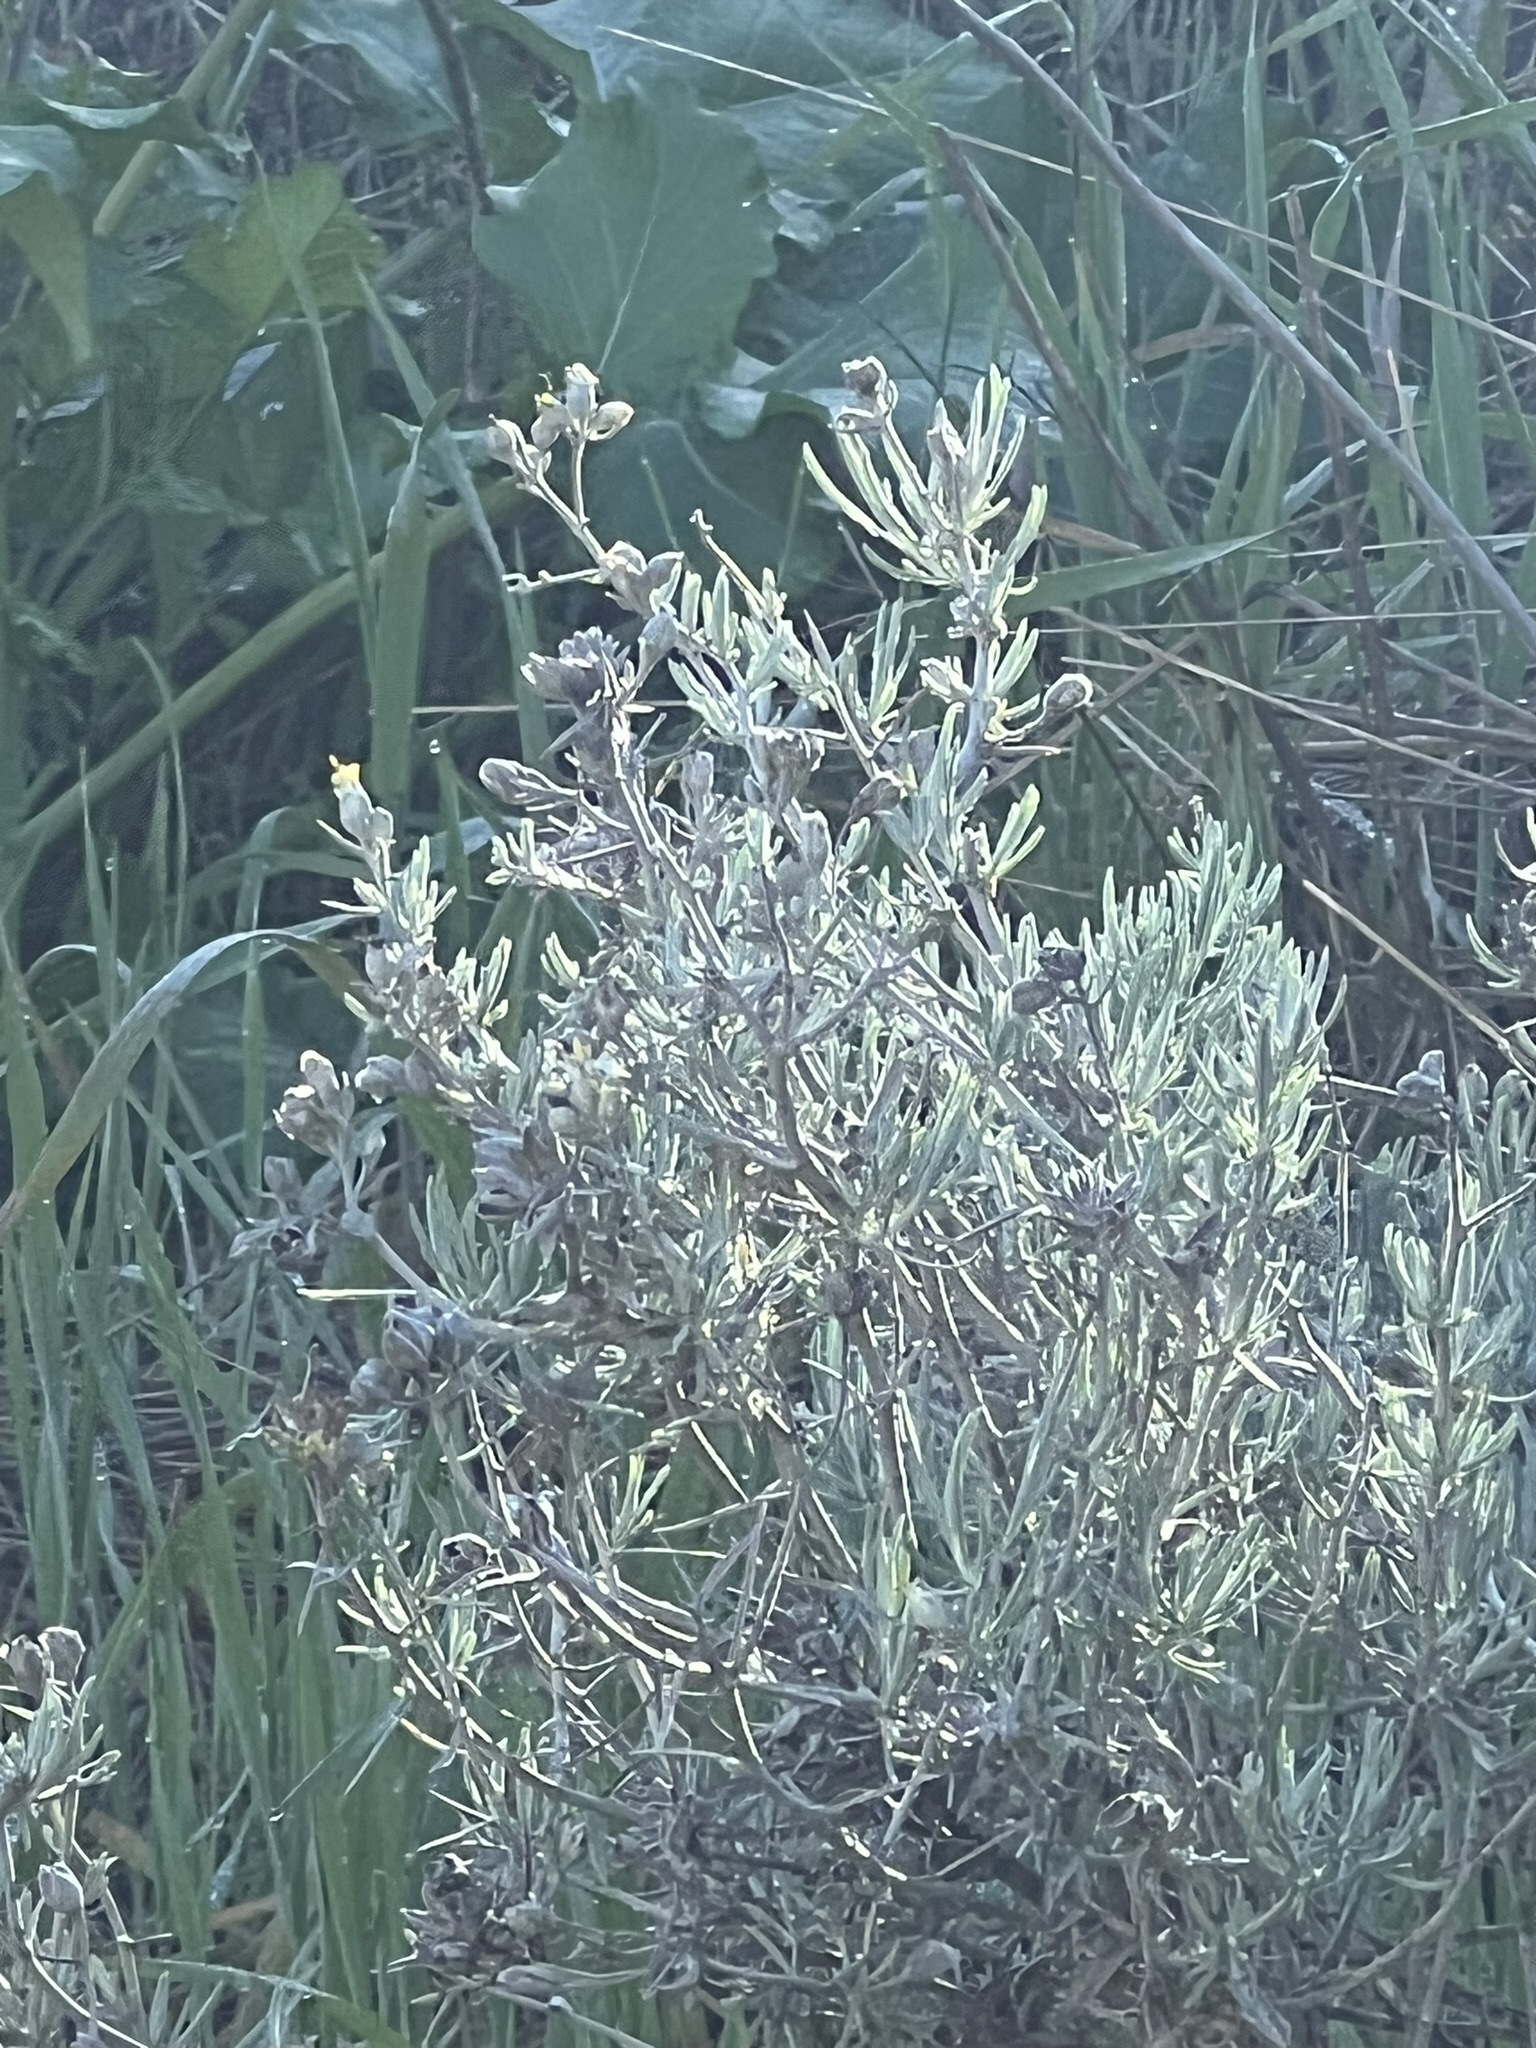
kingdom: Plantae
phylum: Tracheophyta
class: Magnoliopsida
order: Asterales
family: Asteraceae
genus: Tetradymia
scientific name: Tetradymia comosa
